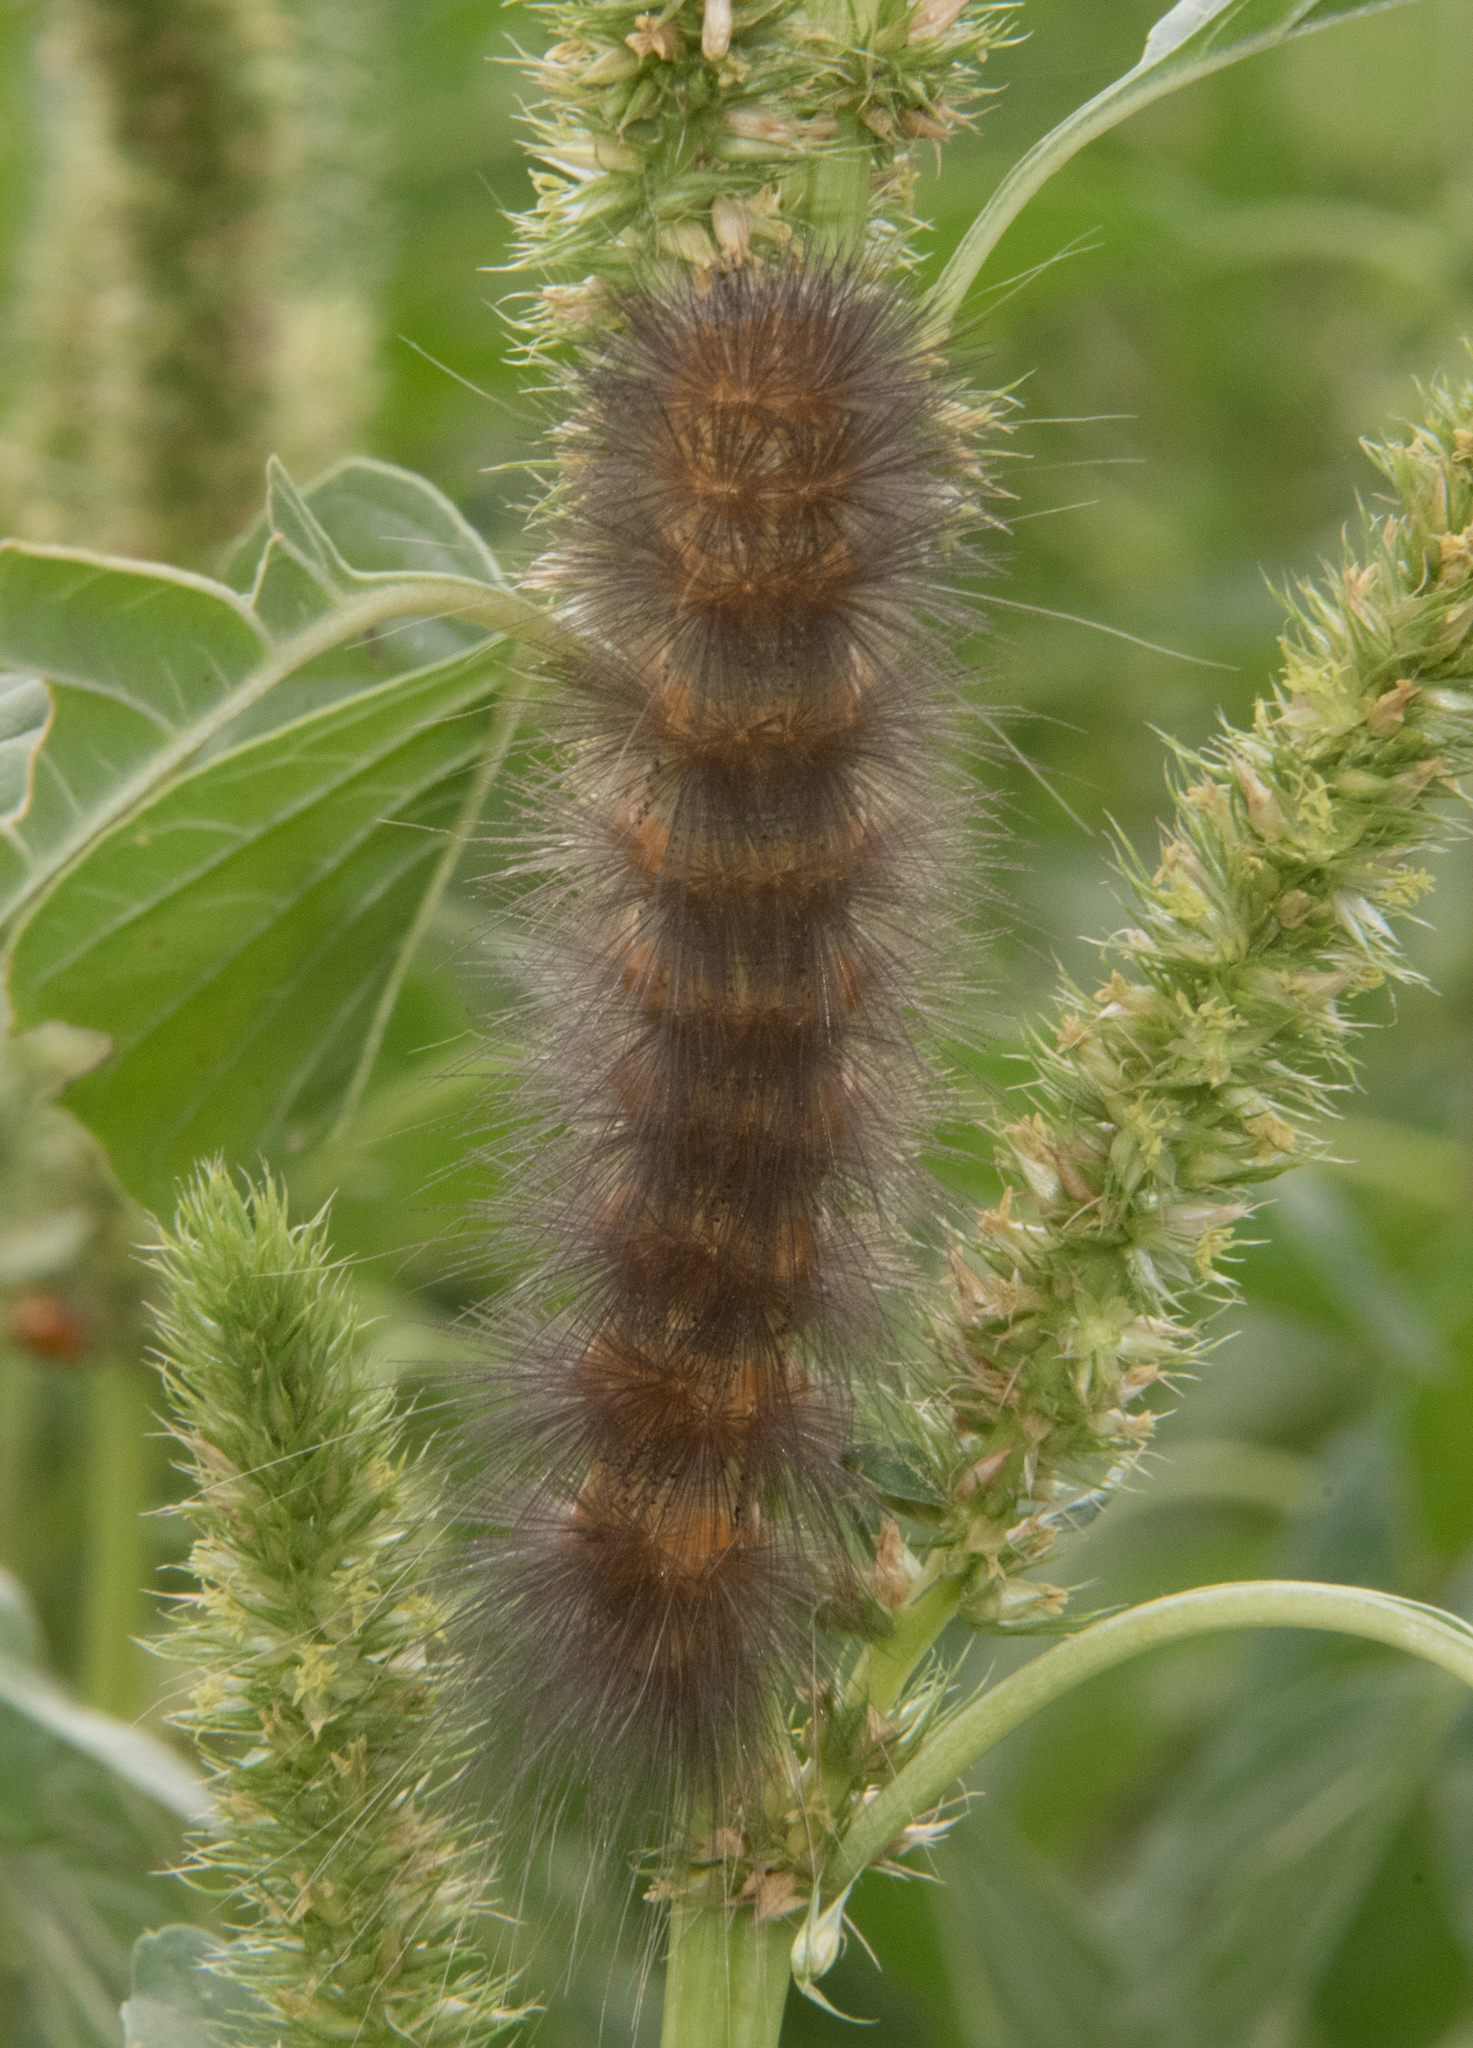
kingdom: Animalia
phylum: Arthropoda
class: Insecta
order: Lepidoptera
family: Erebidae
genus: Estigmene
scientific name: Estigmene
